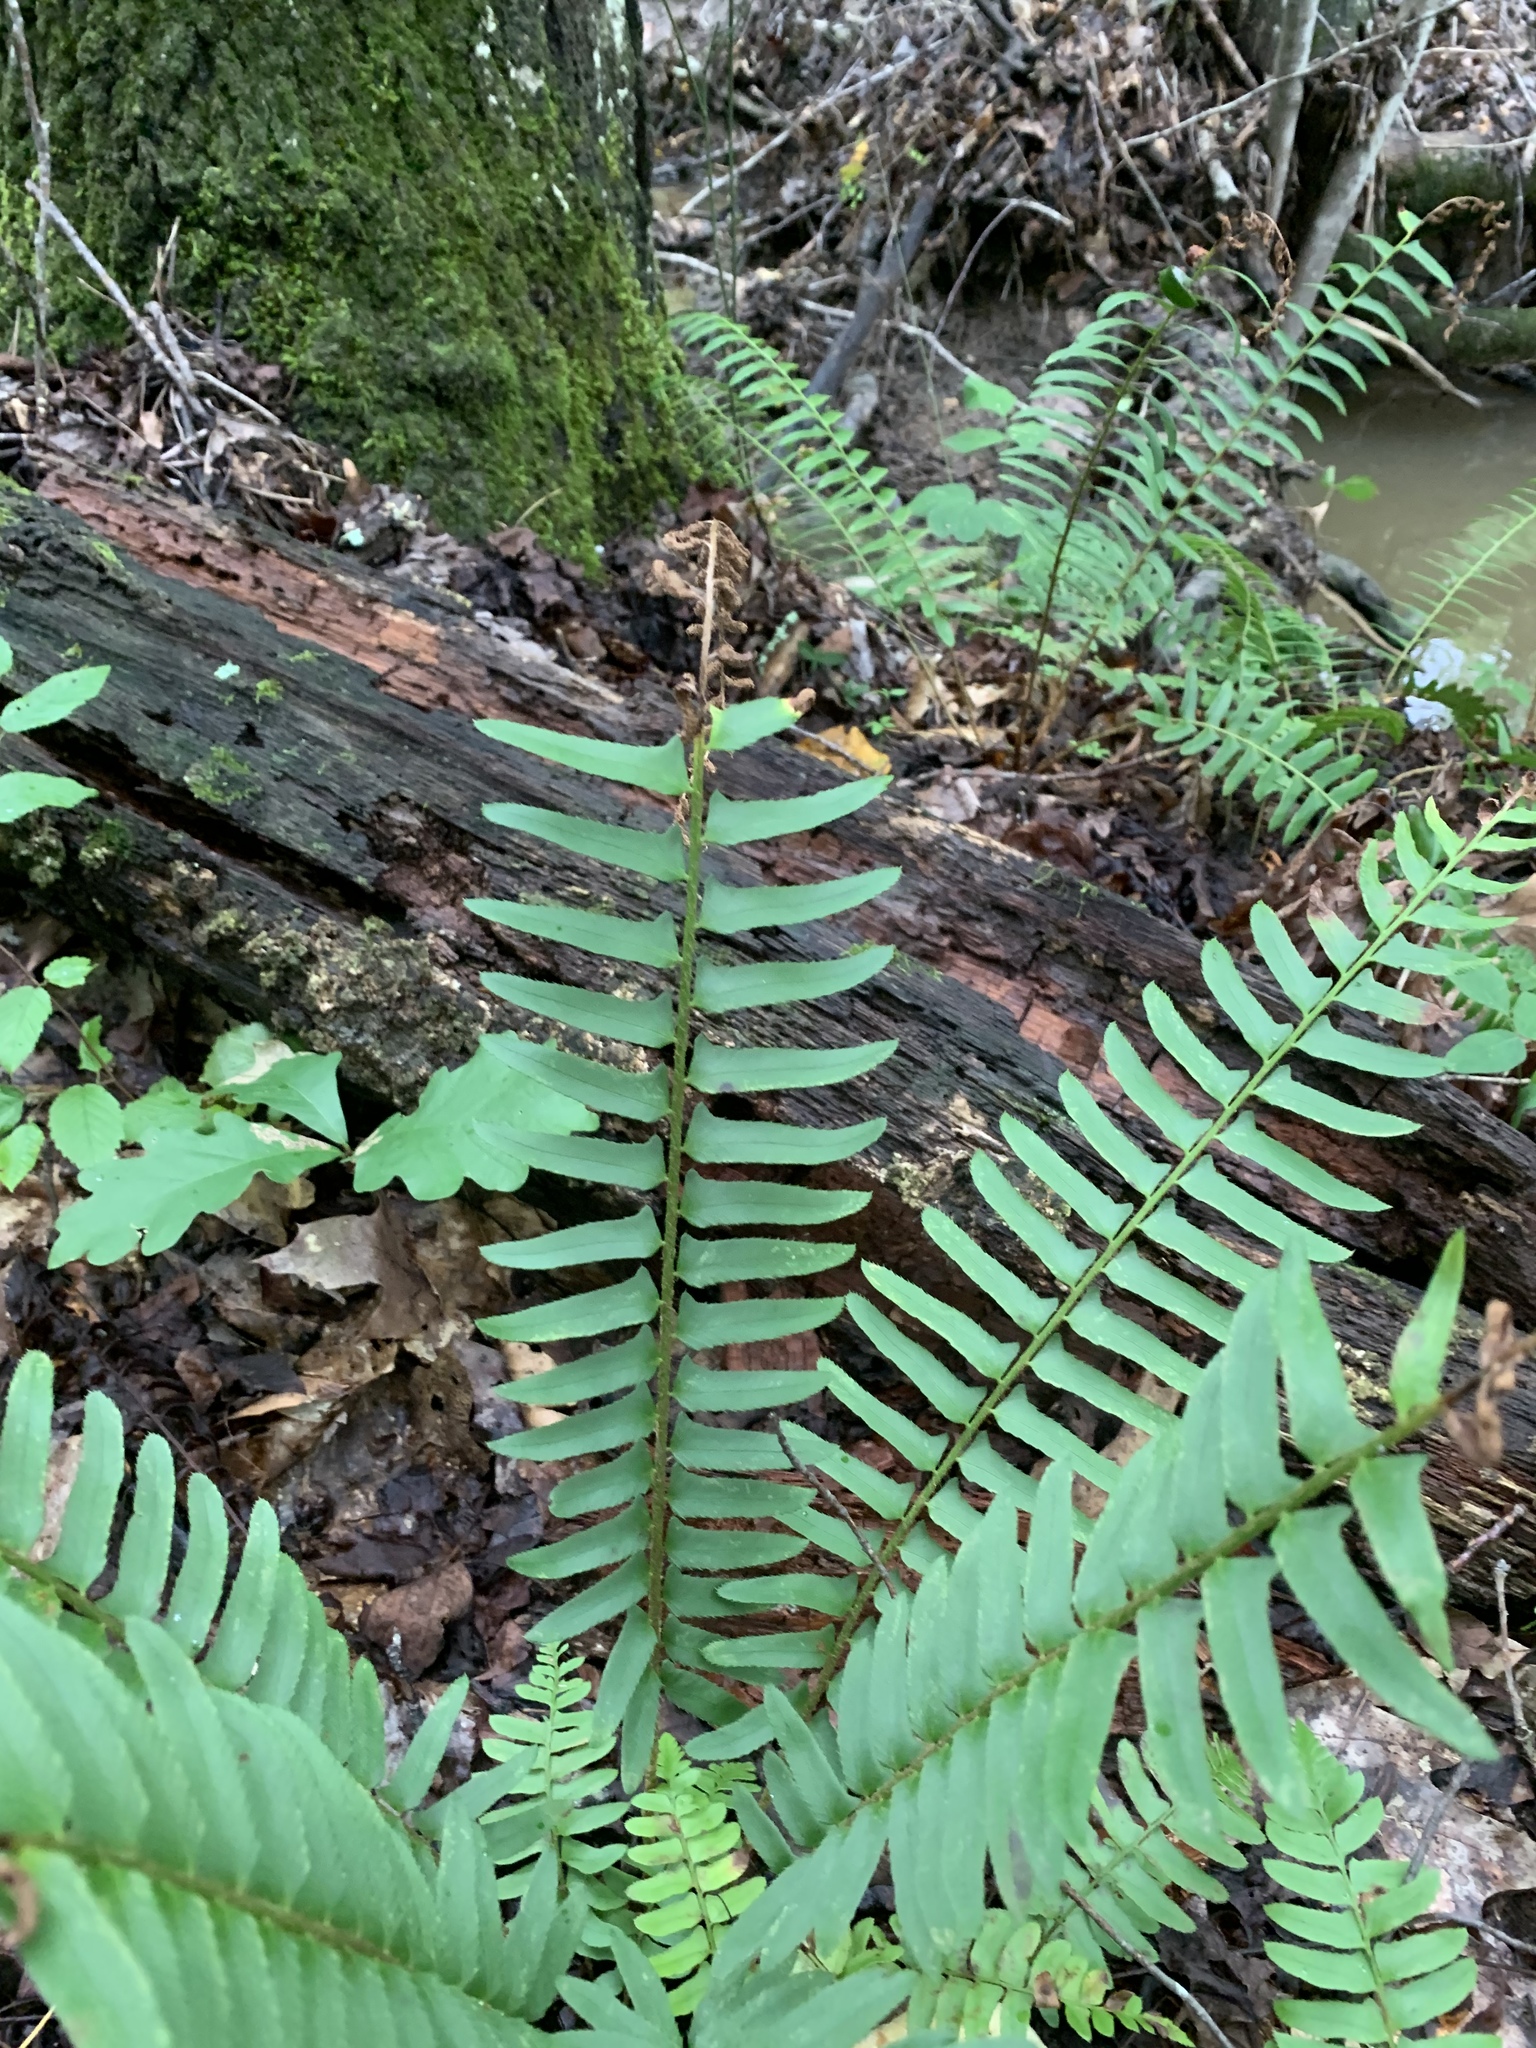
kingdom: Plantae
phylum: Tracheophyta
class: Polypodiopsida
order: Polypodiales
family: Dryopteridaceae
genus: Polystichum
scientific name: Polystichum acrostichoides
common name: Christmas fern
